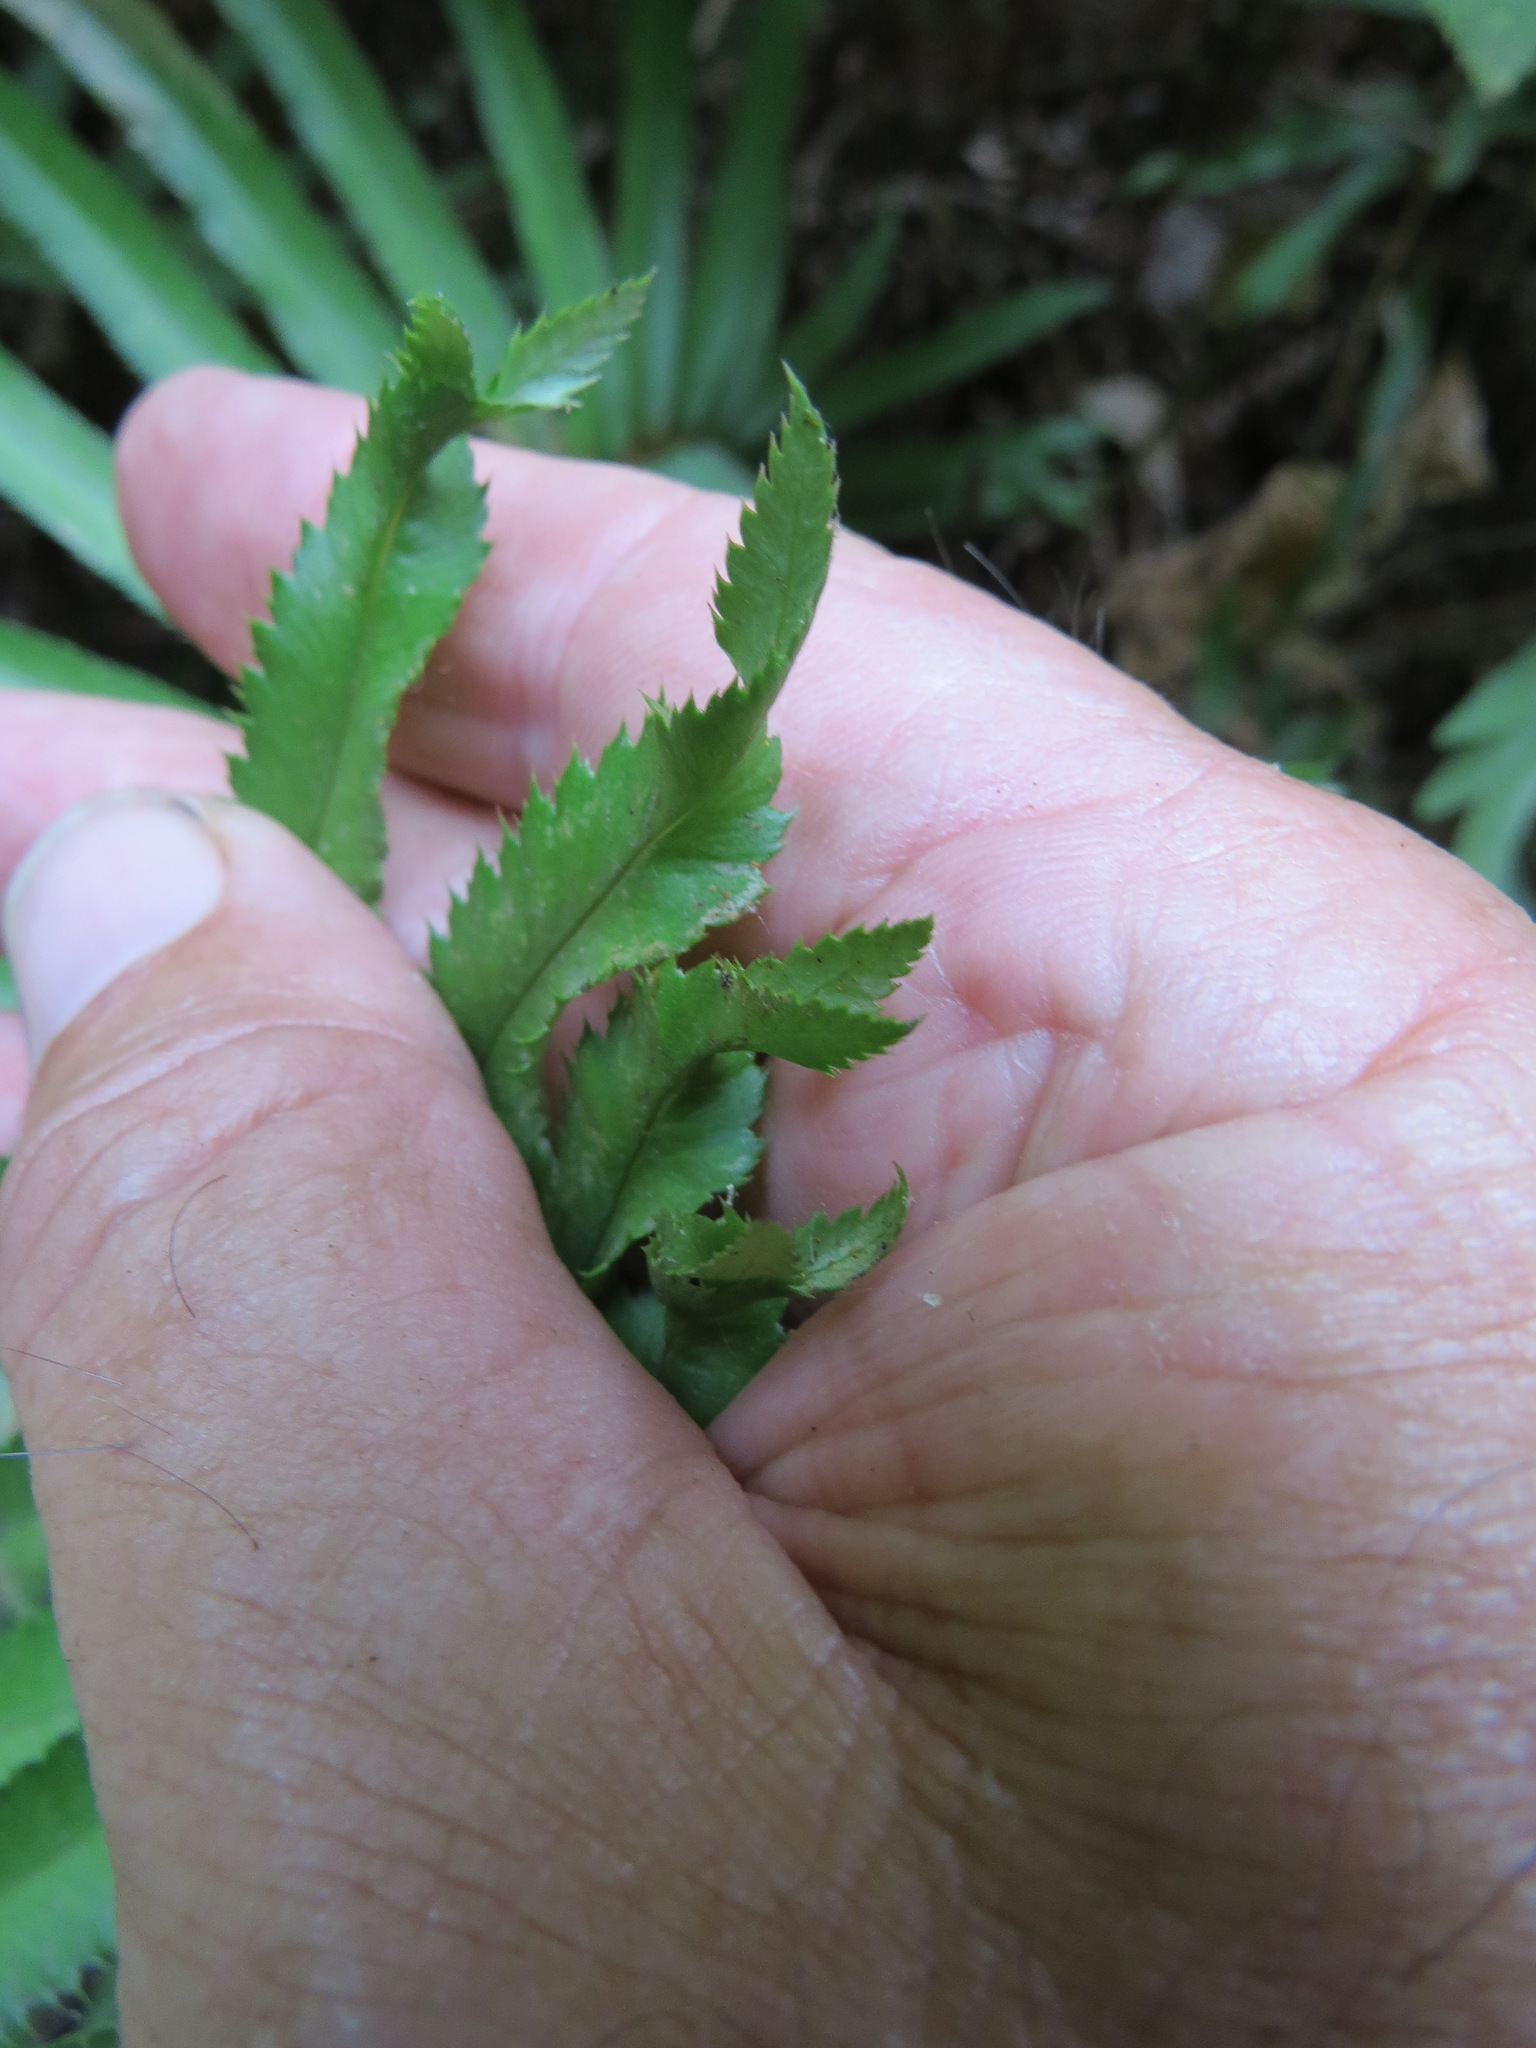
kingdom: Plantae
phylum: Tracheophyta
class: Polypodiopsida
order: Polypodiales
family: Dryopteridaceae
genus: Polystichum
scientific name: Polystichum munitum
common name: Western sword-fern
